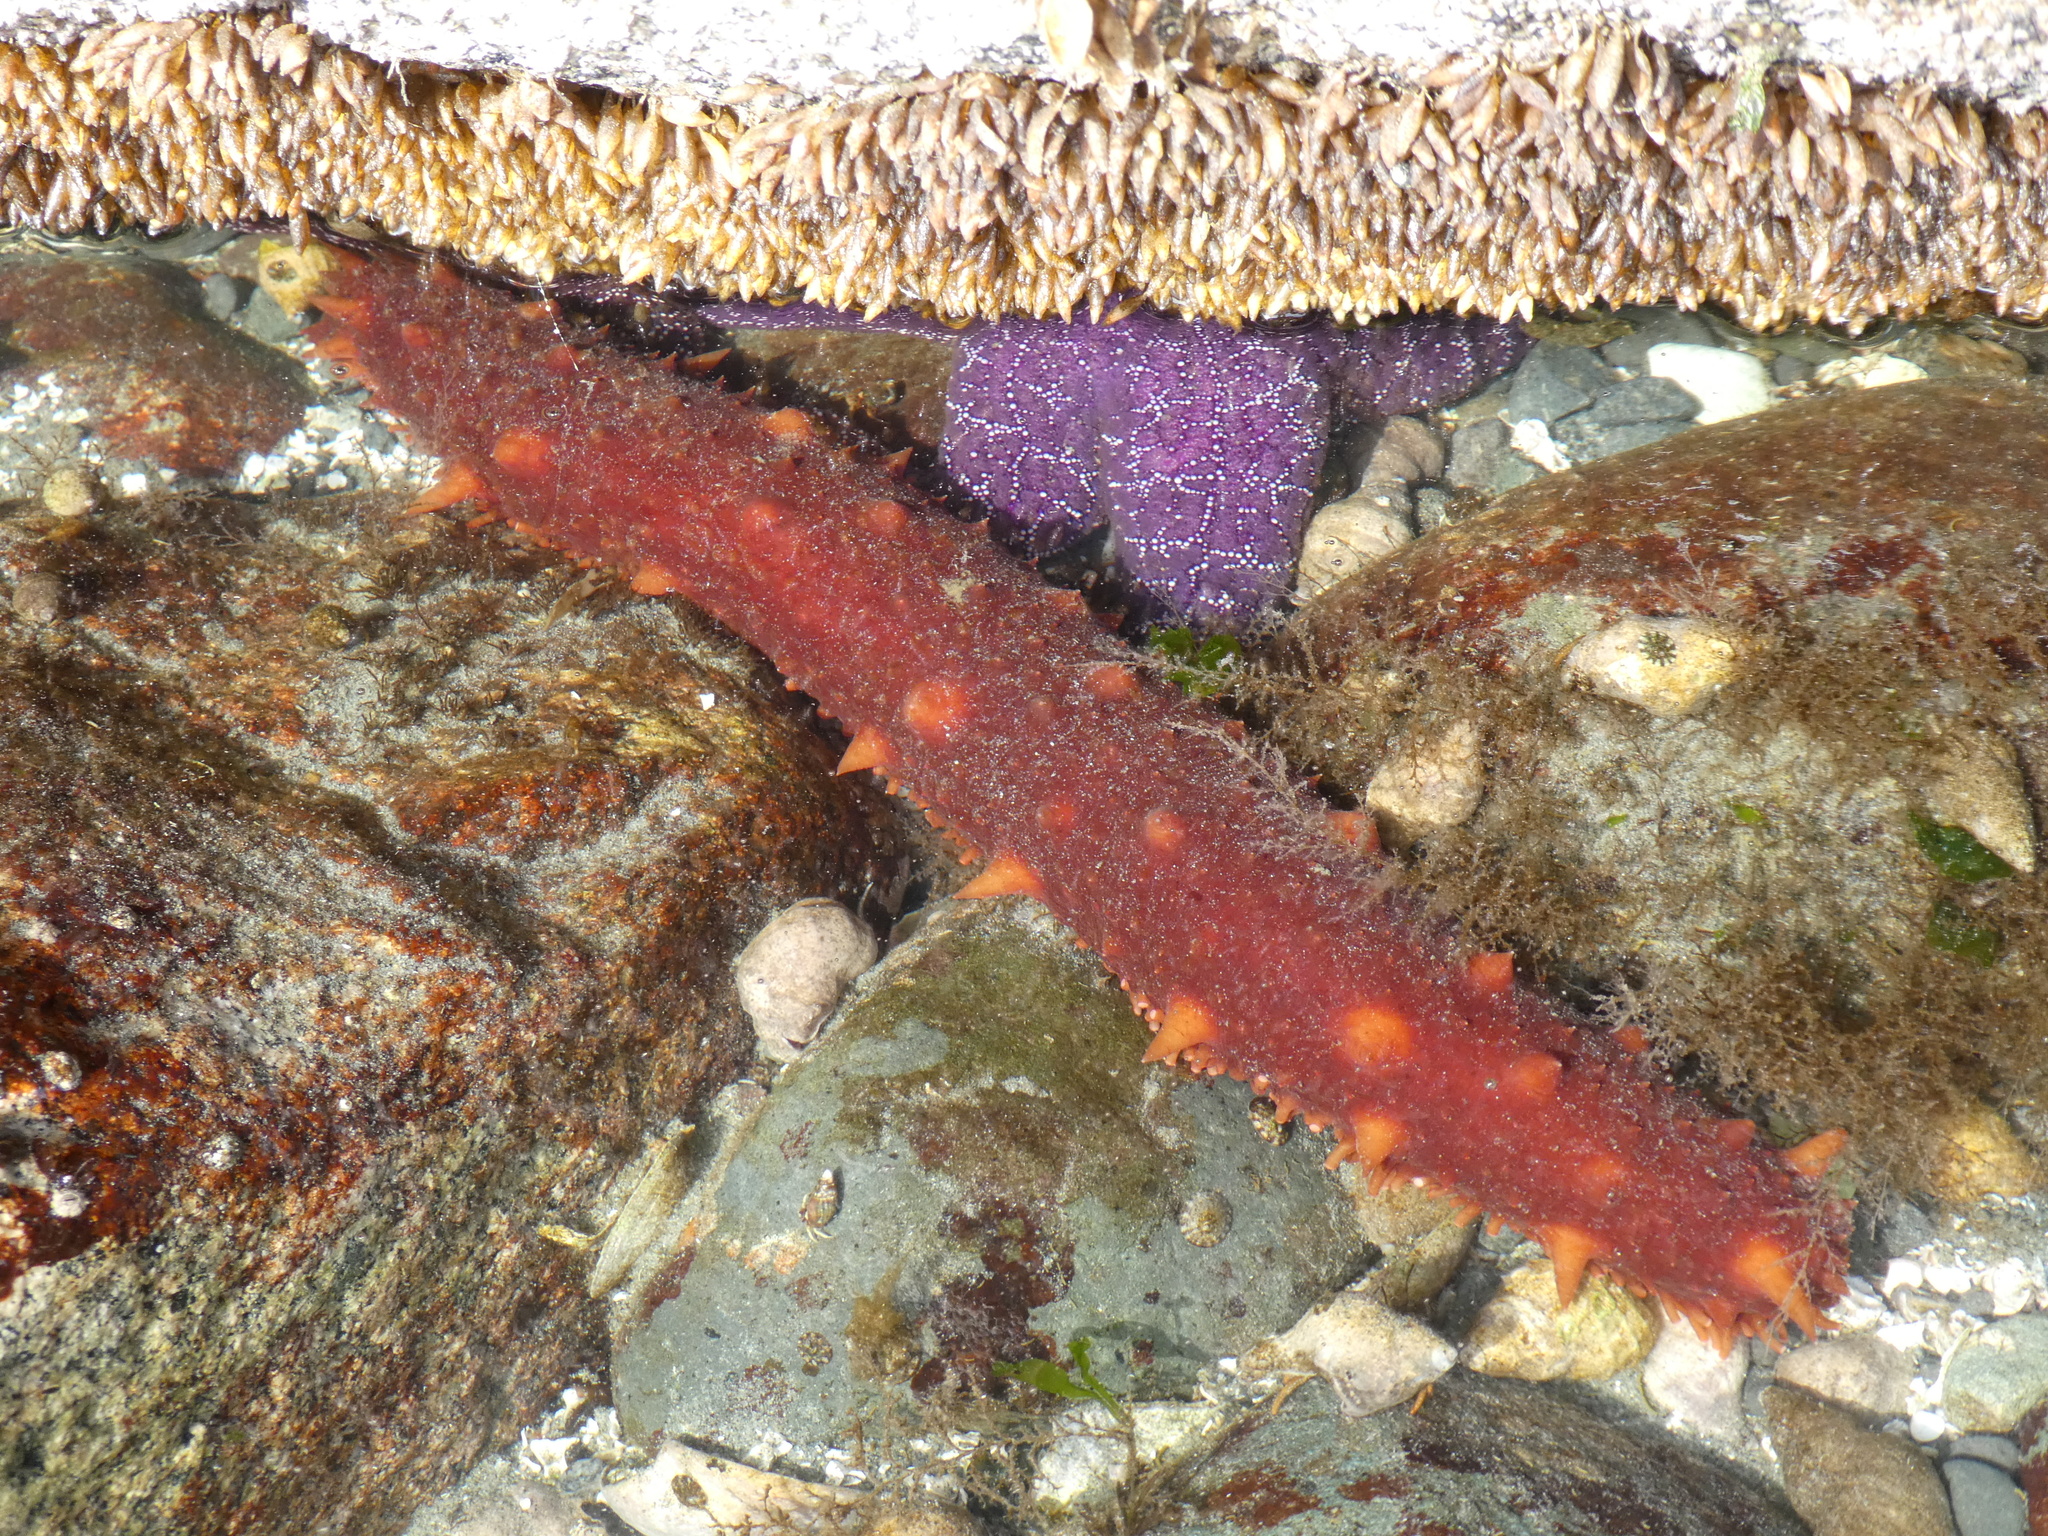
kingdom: Animalia
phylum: Echinodermata
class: Holothuroidea
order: Synallactida
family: Stichopodidae
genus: Apostichopus
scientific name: Apostichopus californicus
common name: California sea cucumber
